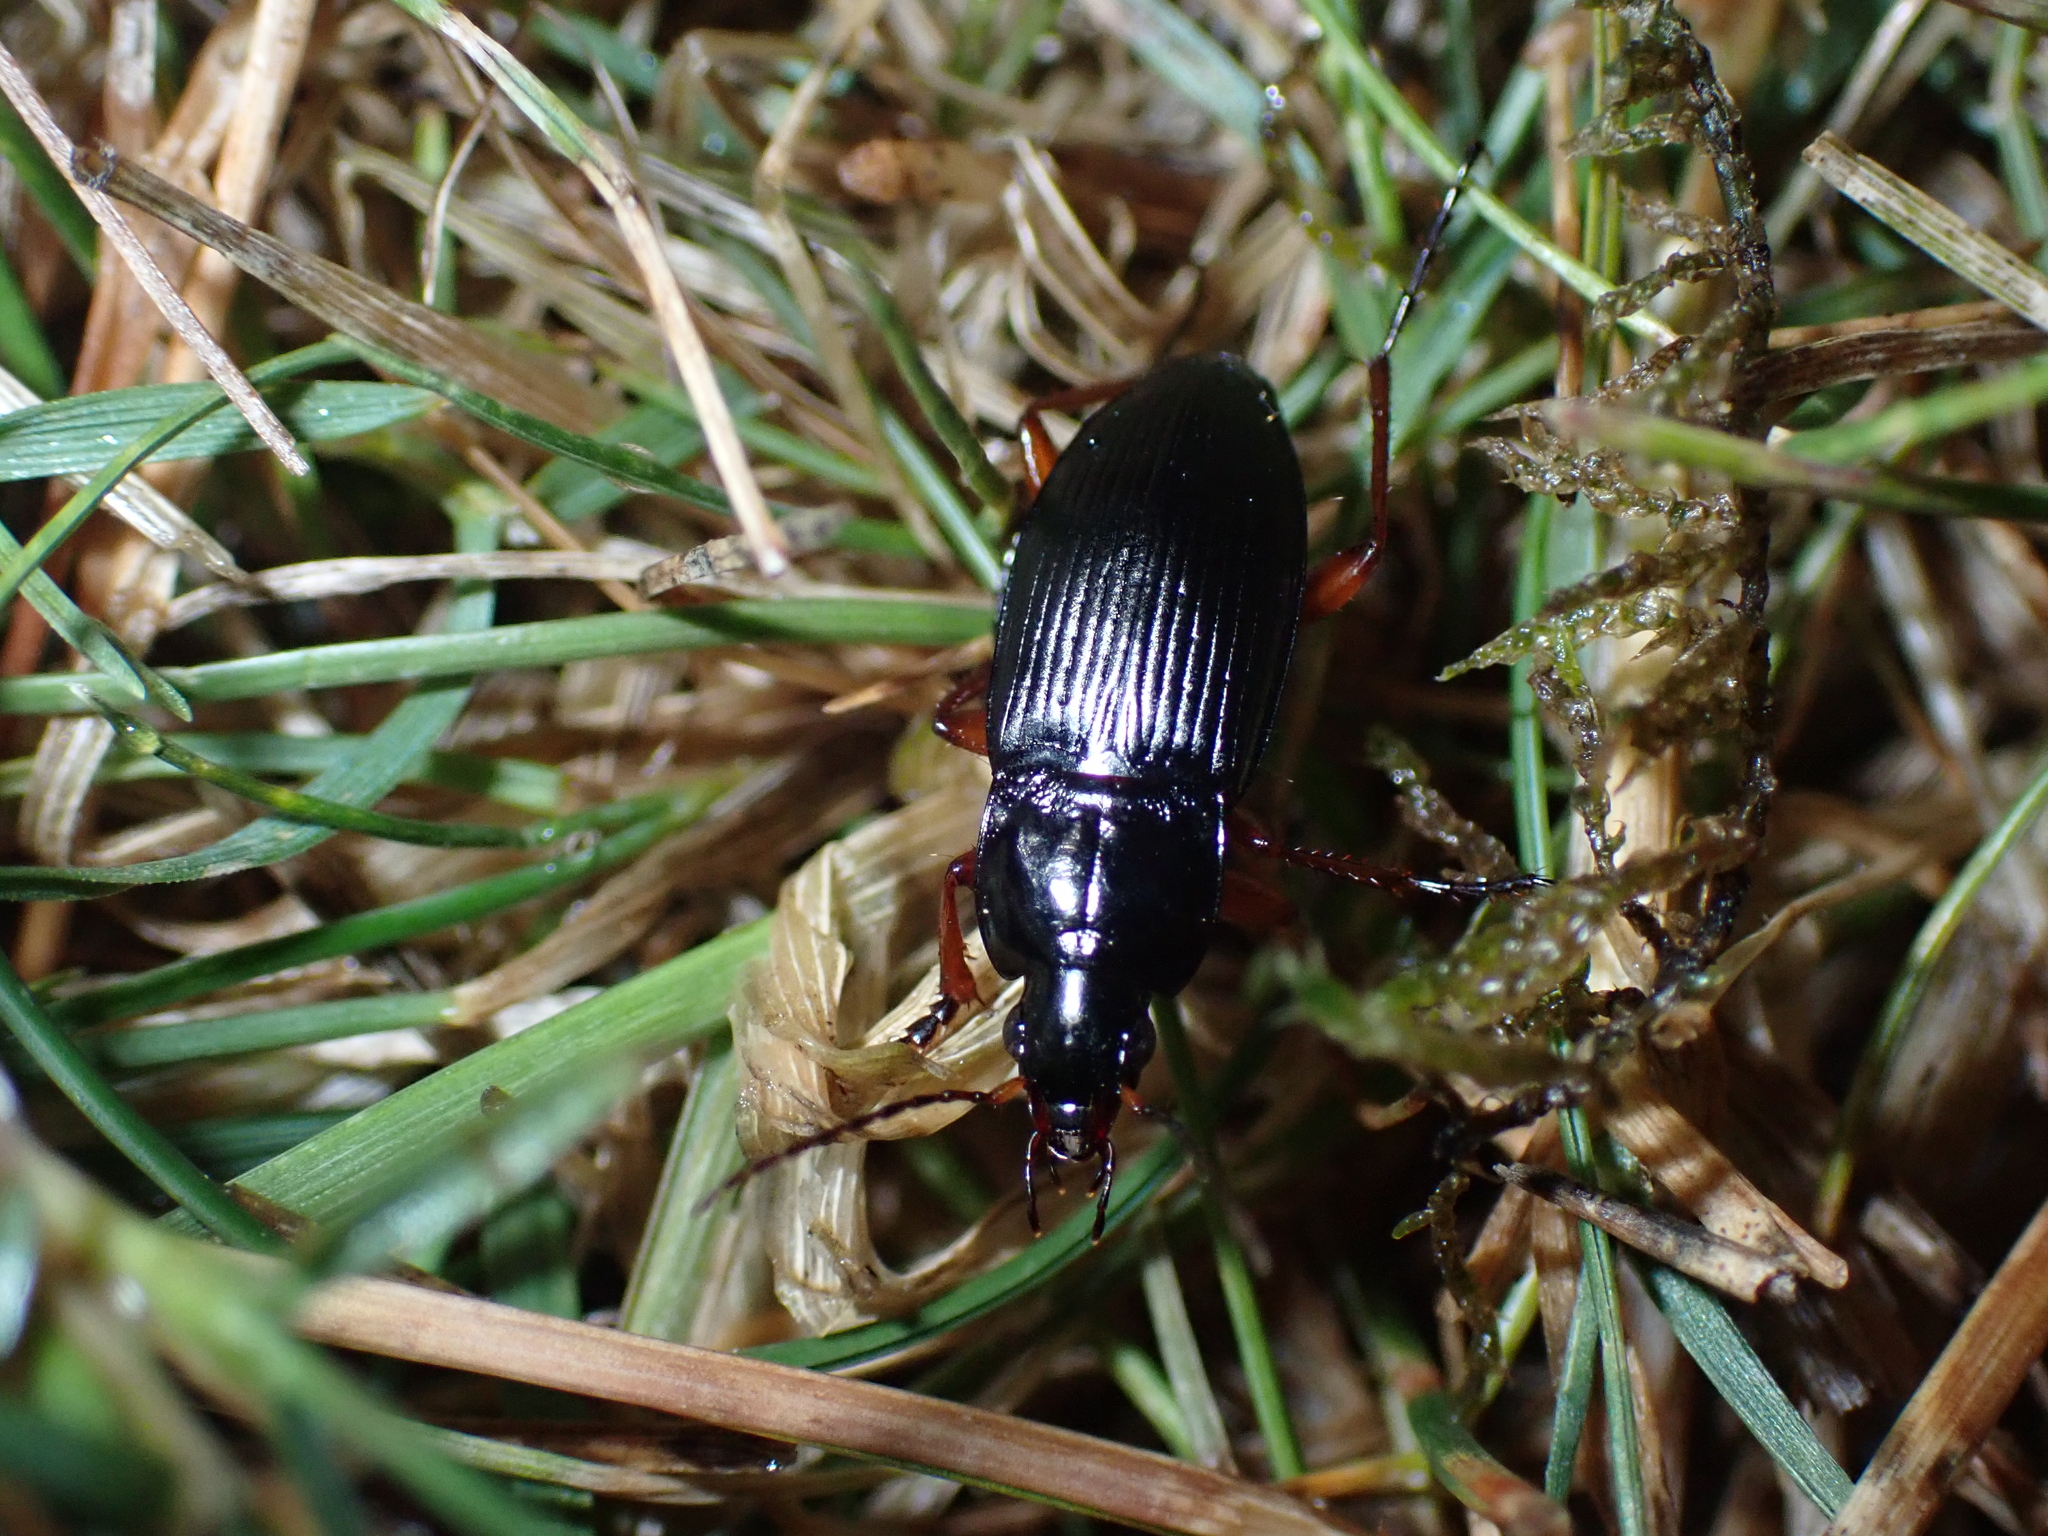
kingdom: Animalia
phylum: Arthropoda
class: Insecta
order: Coleoptera
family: Carabidae
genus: Calathus
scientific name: Calathus fuscipes
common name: Dark-footed harp ground beetle
